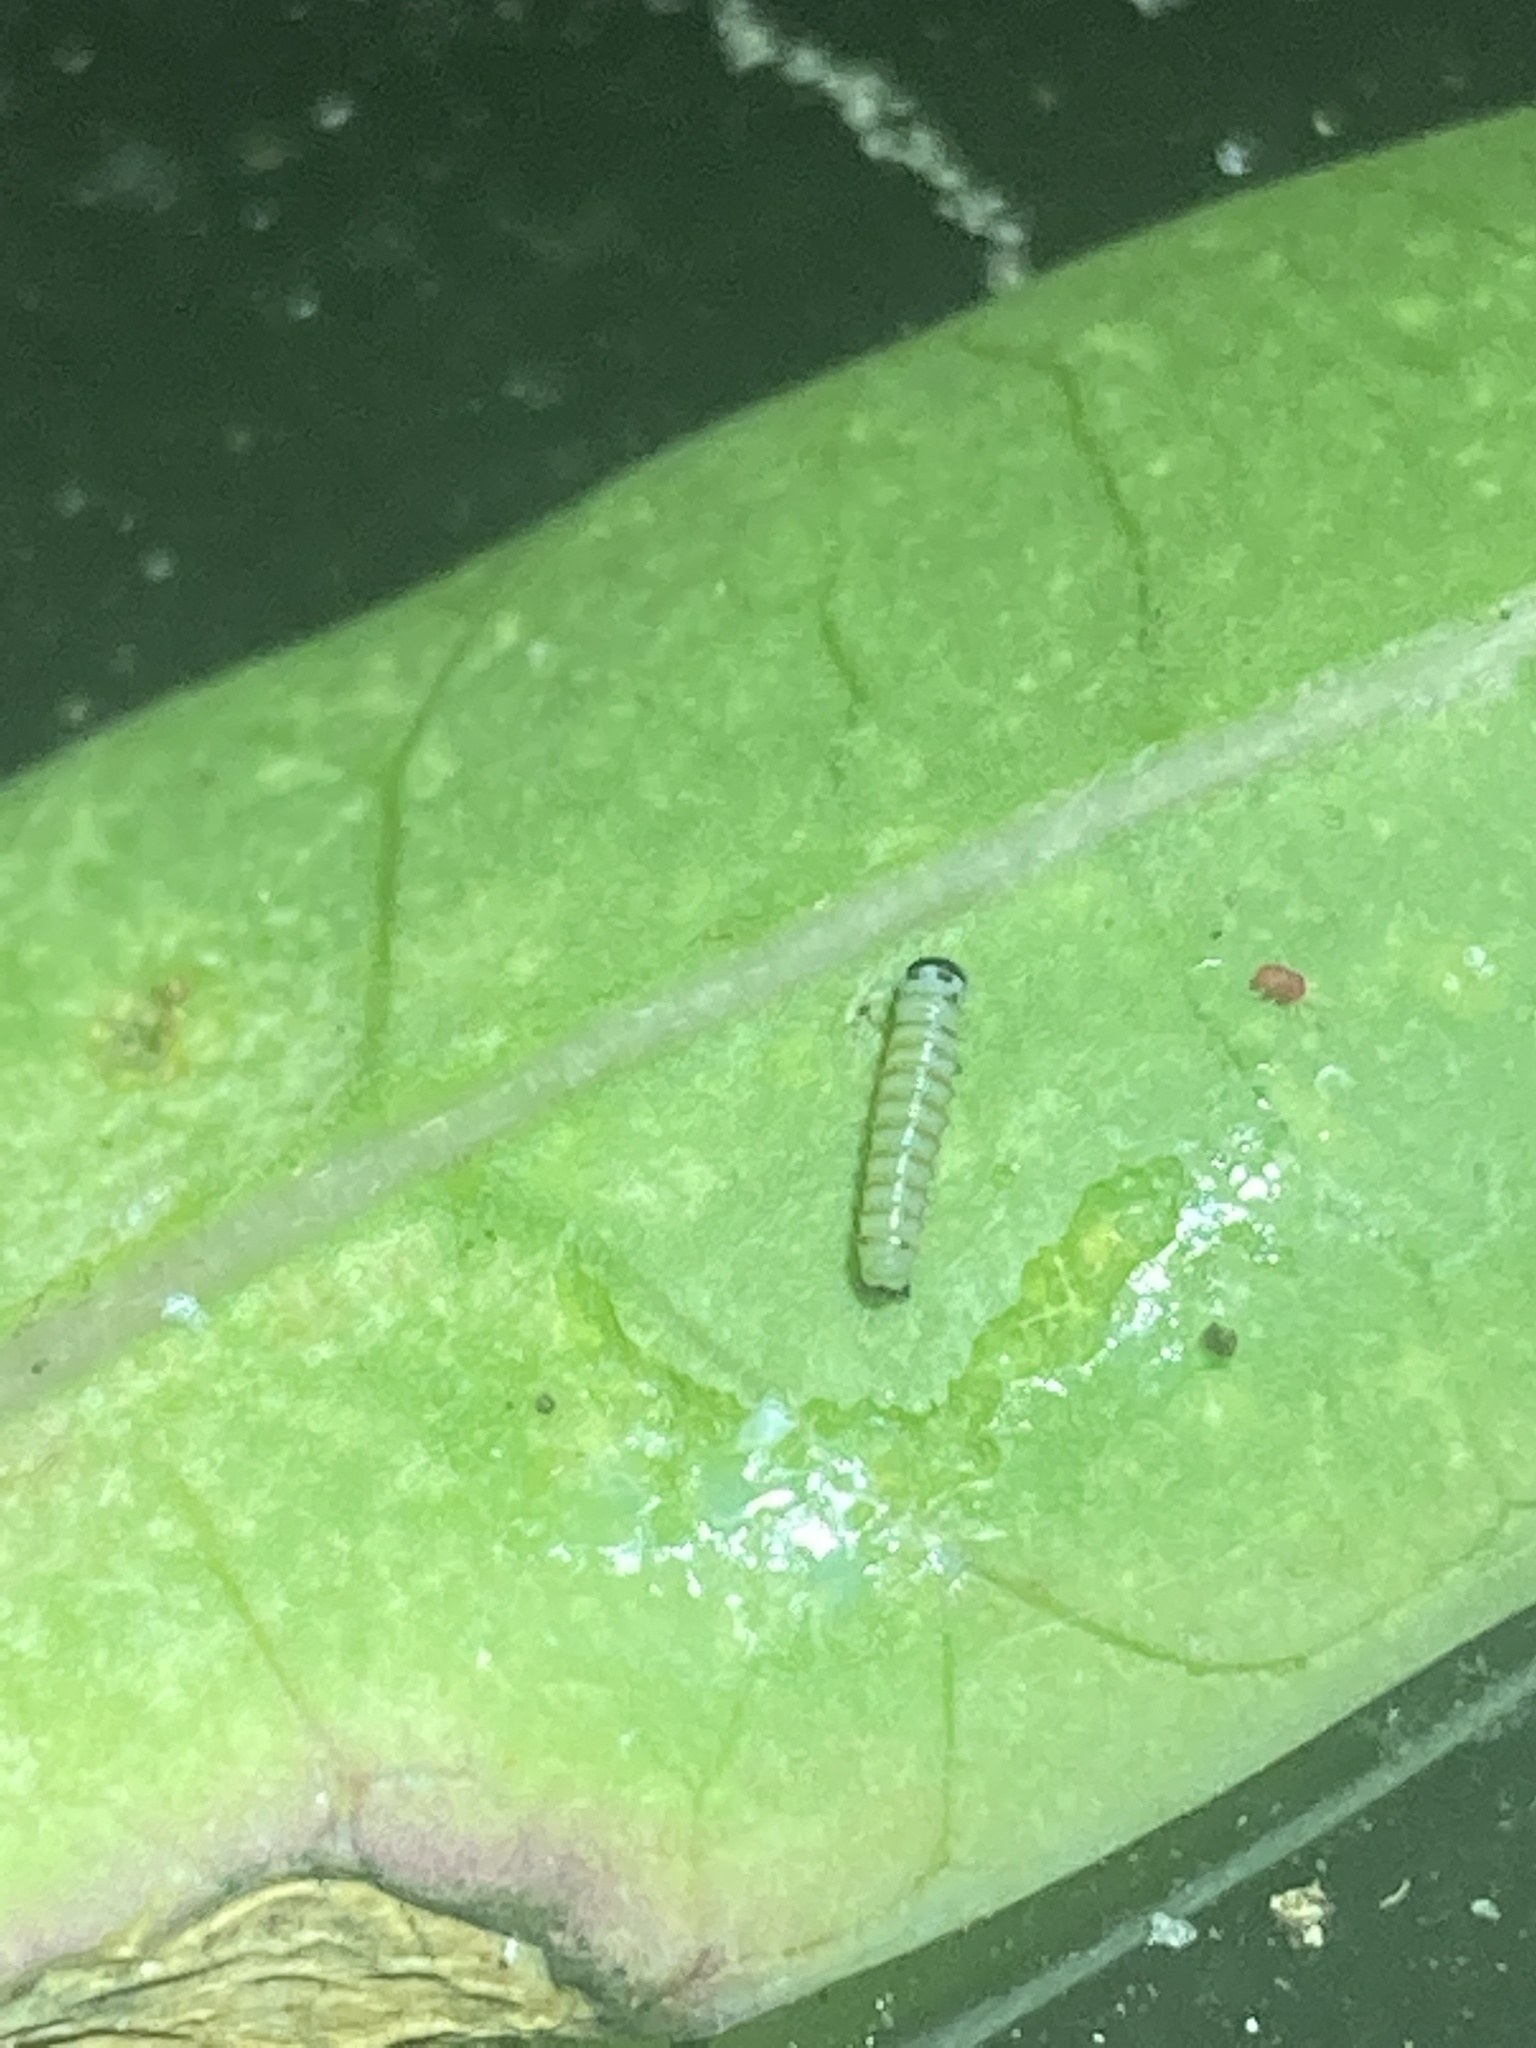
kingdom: Animalia
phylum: Arthropoda
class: Insecta
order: Lepidoptera
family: Nymphalidae
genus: Danaus
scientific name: Danaus plexippus
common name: Monarch
